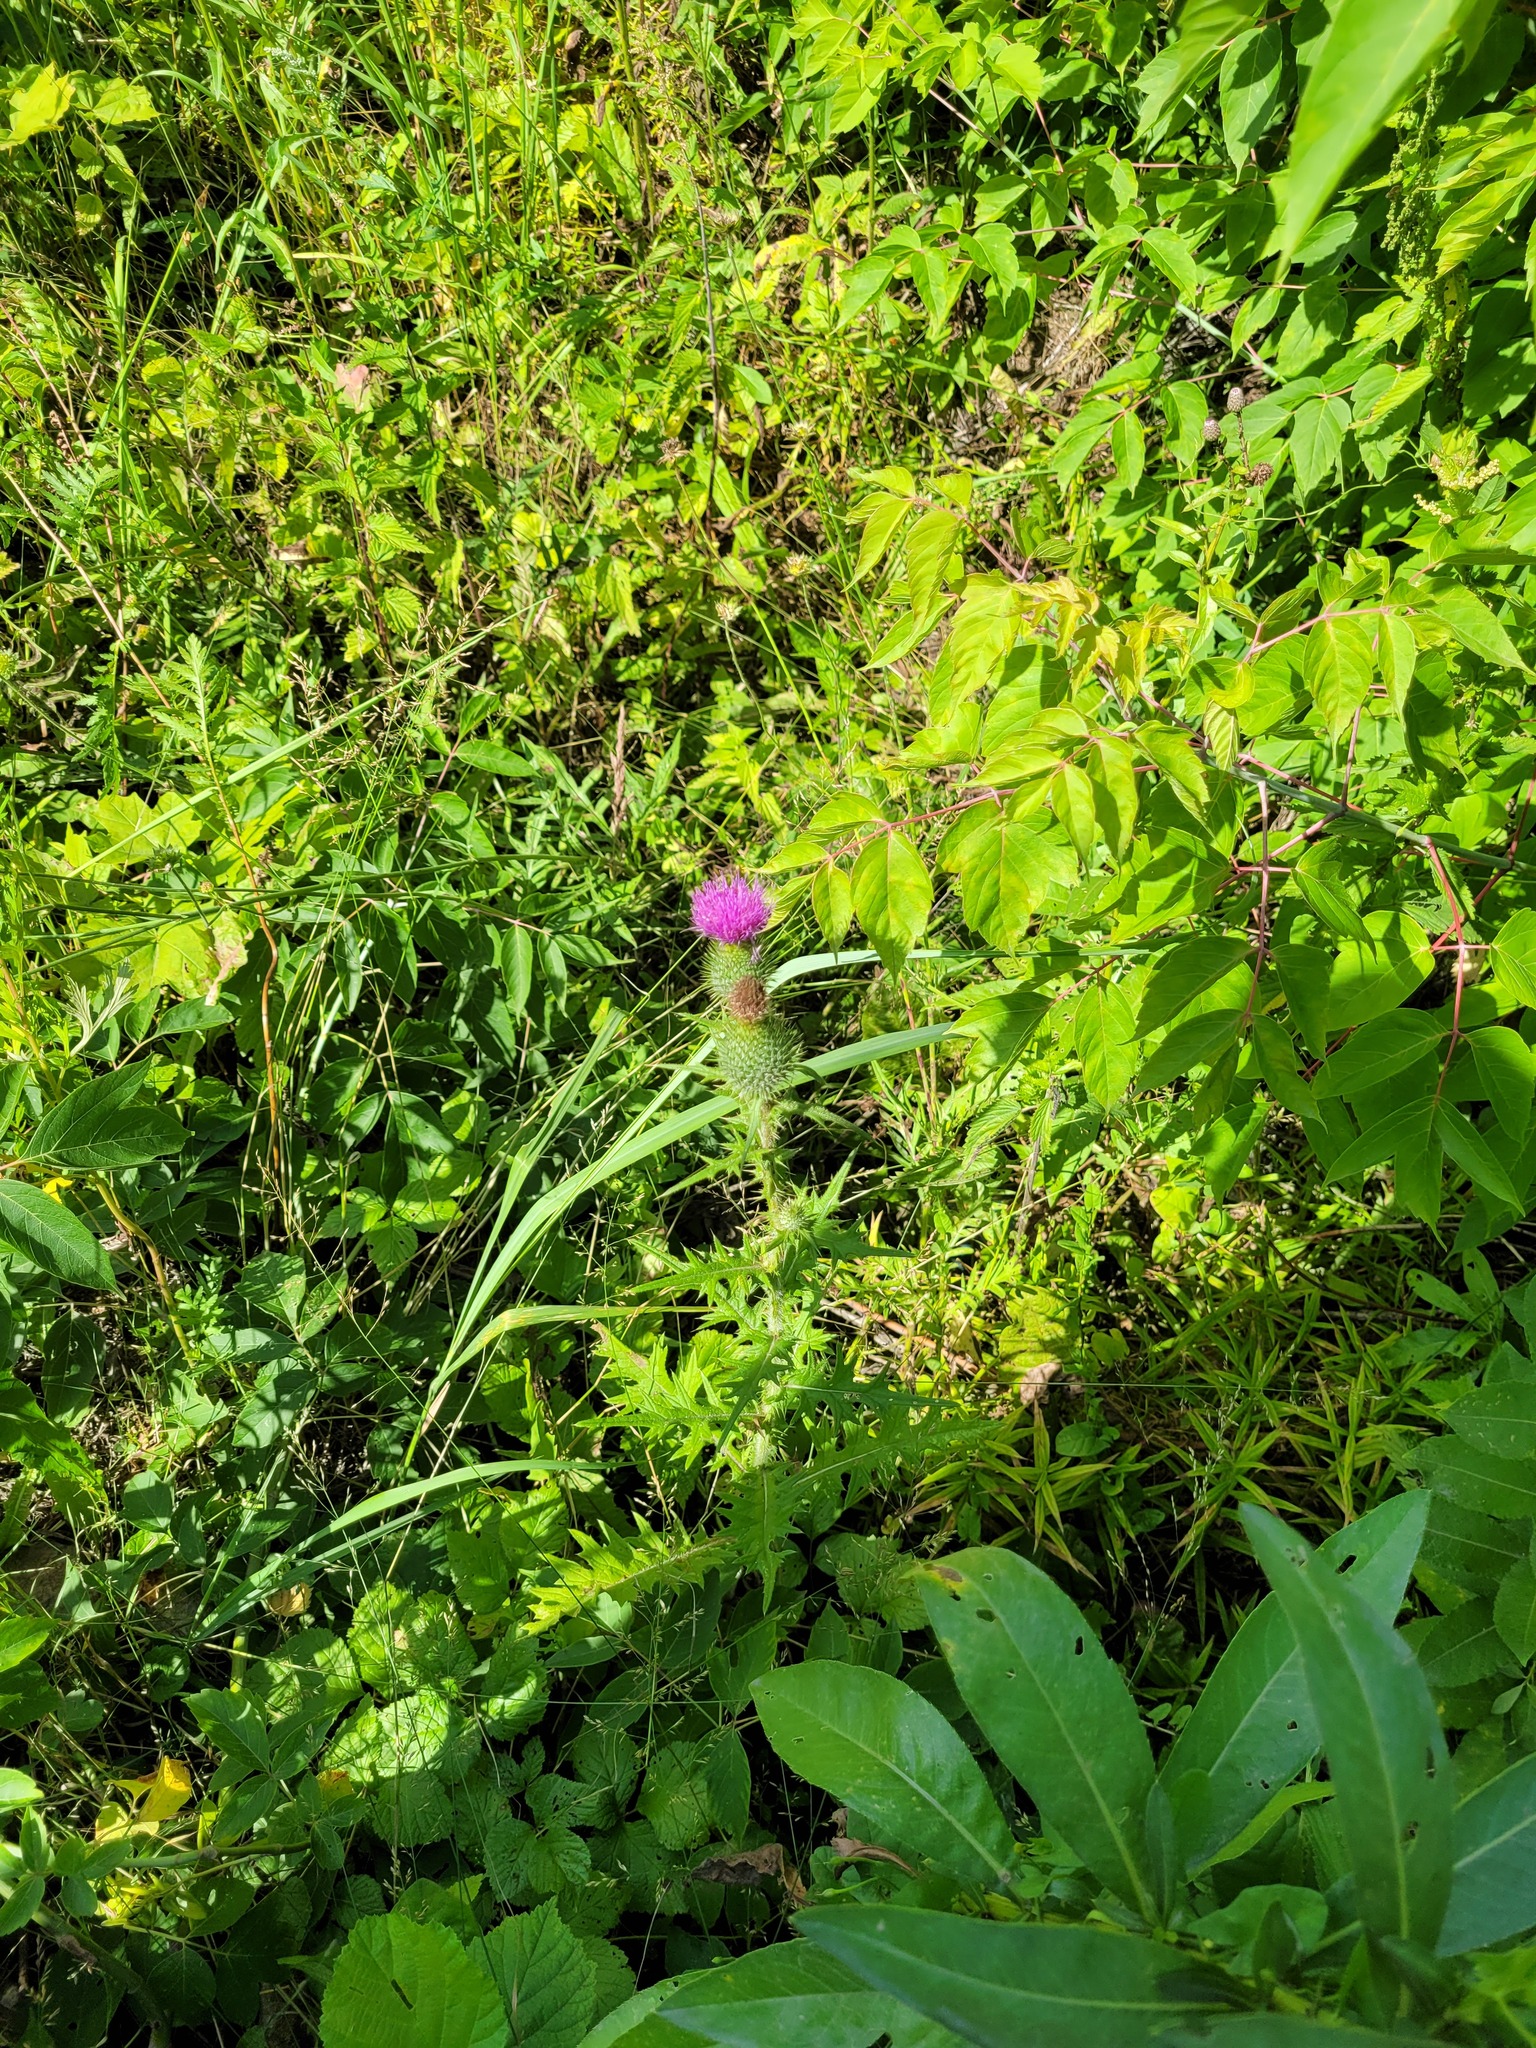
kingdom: Plantae
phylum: Tracheophyta
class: Magnoliopsida
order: Asterales
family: Asteraceae
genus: Cirsium
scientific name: Cirsium vulgare
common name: Bull thistle
